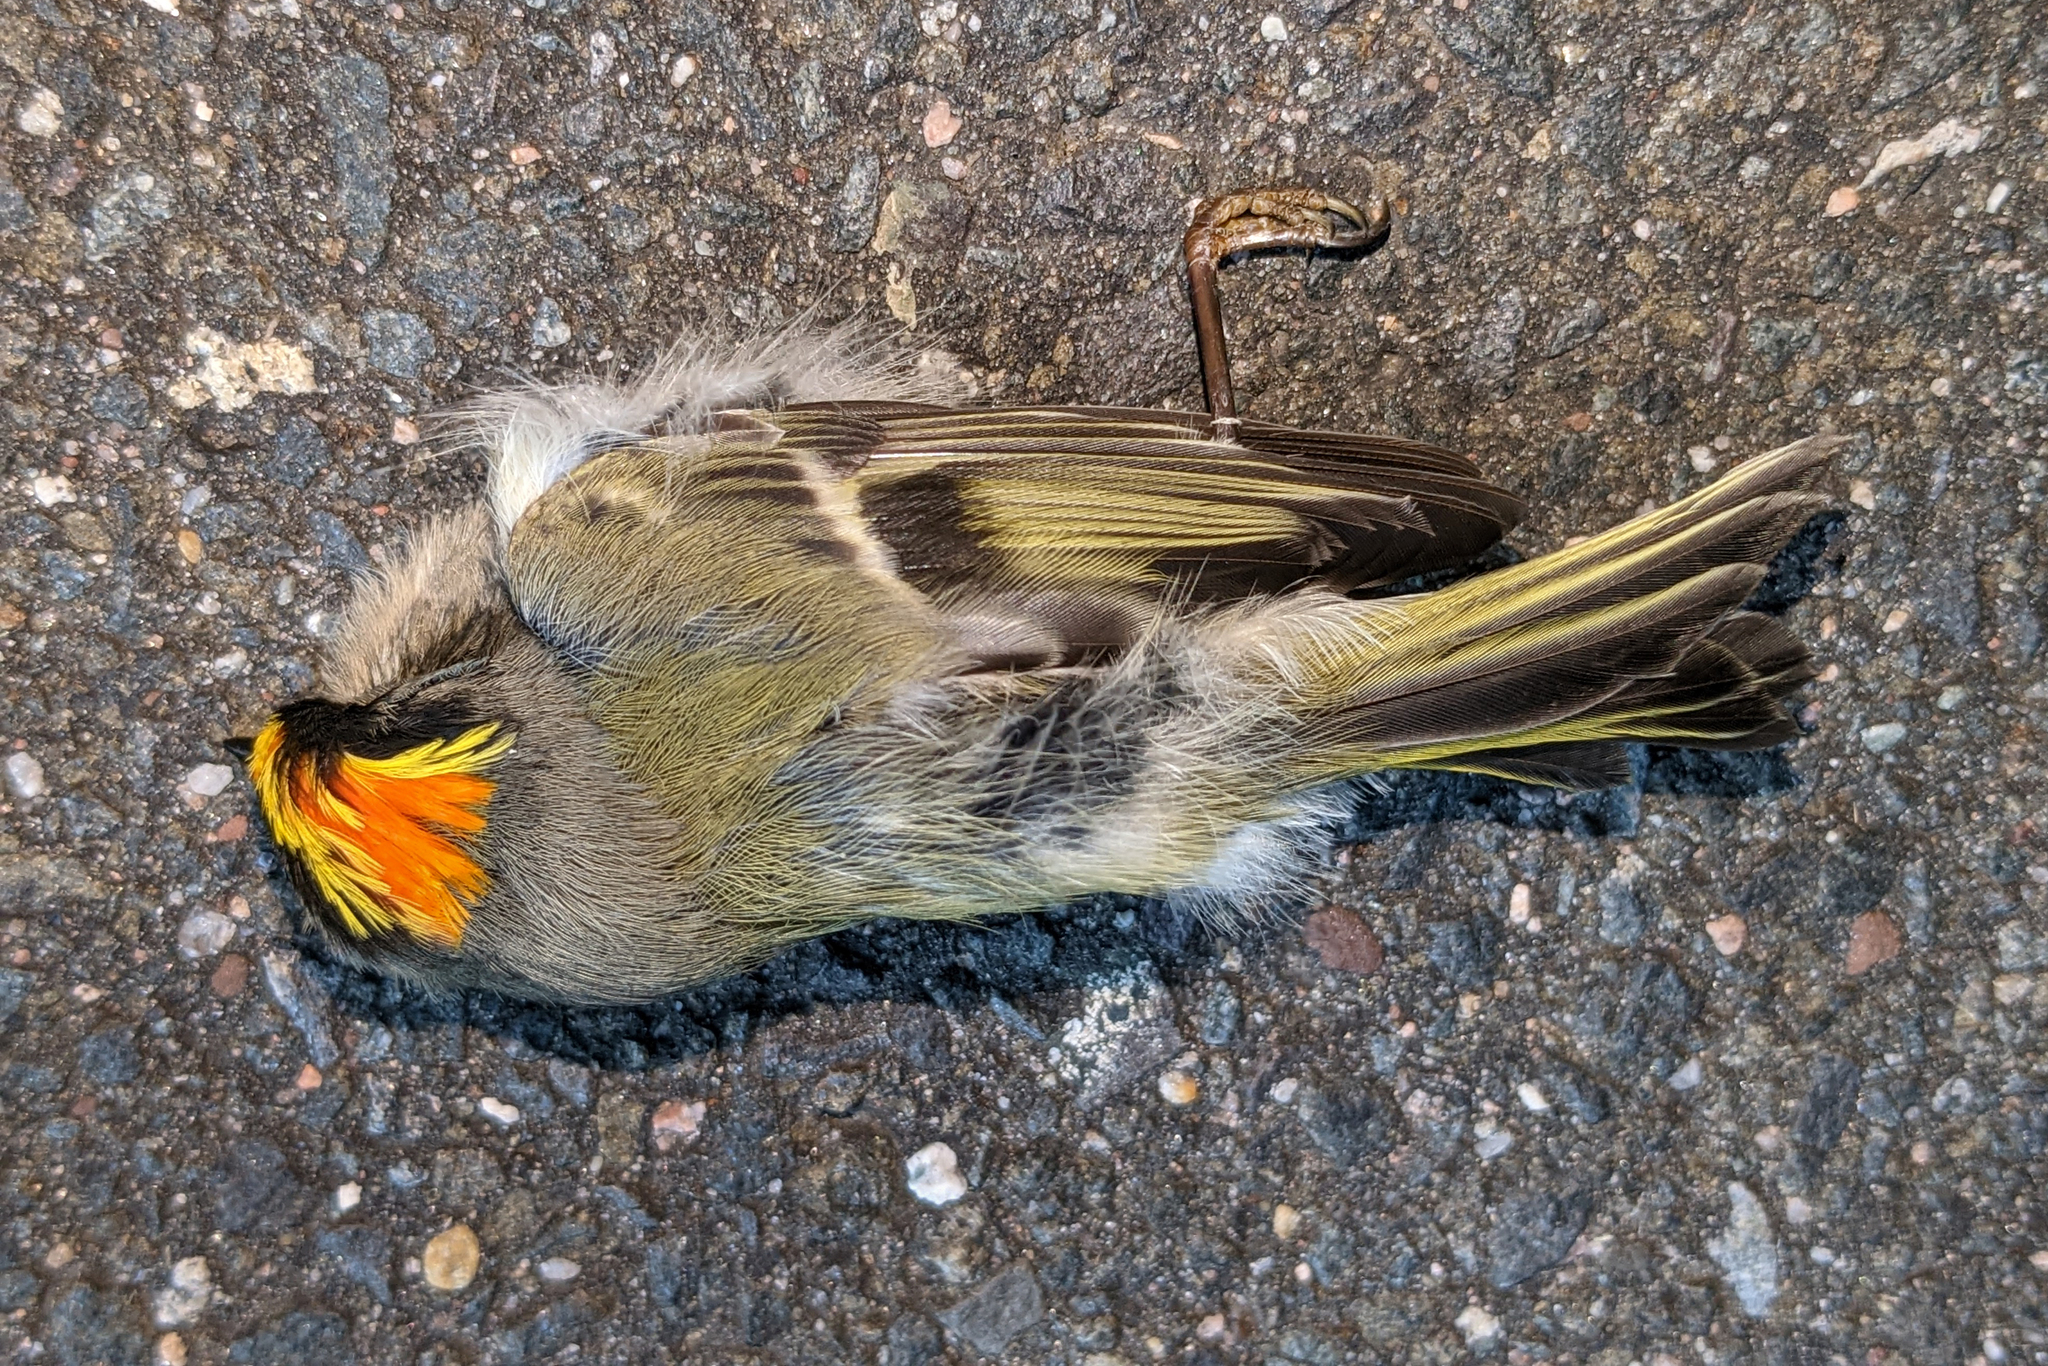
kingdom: Animalia
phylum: Chordata
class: Aves
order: Passeriformes
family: Regulidae
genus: Regulus
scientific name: Regulus satrapa
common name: Golden-crowned kinglet
